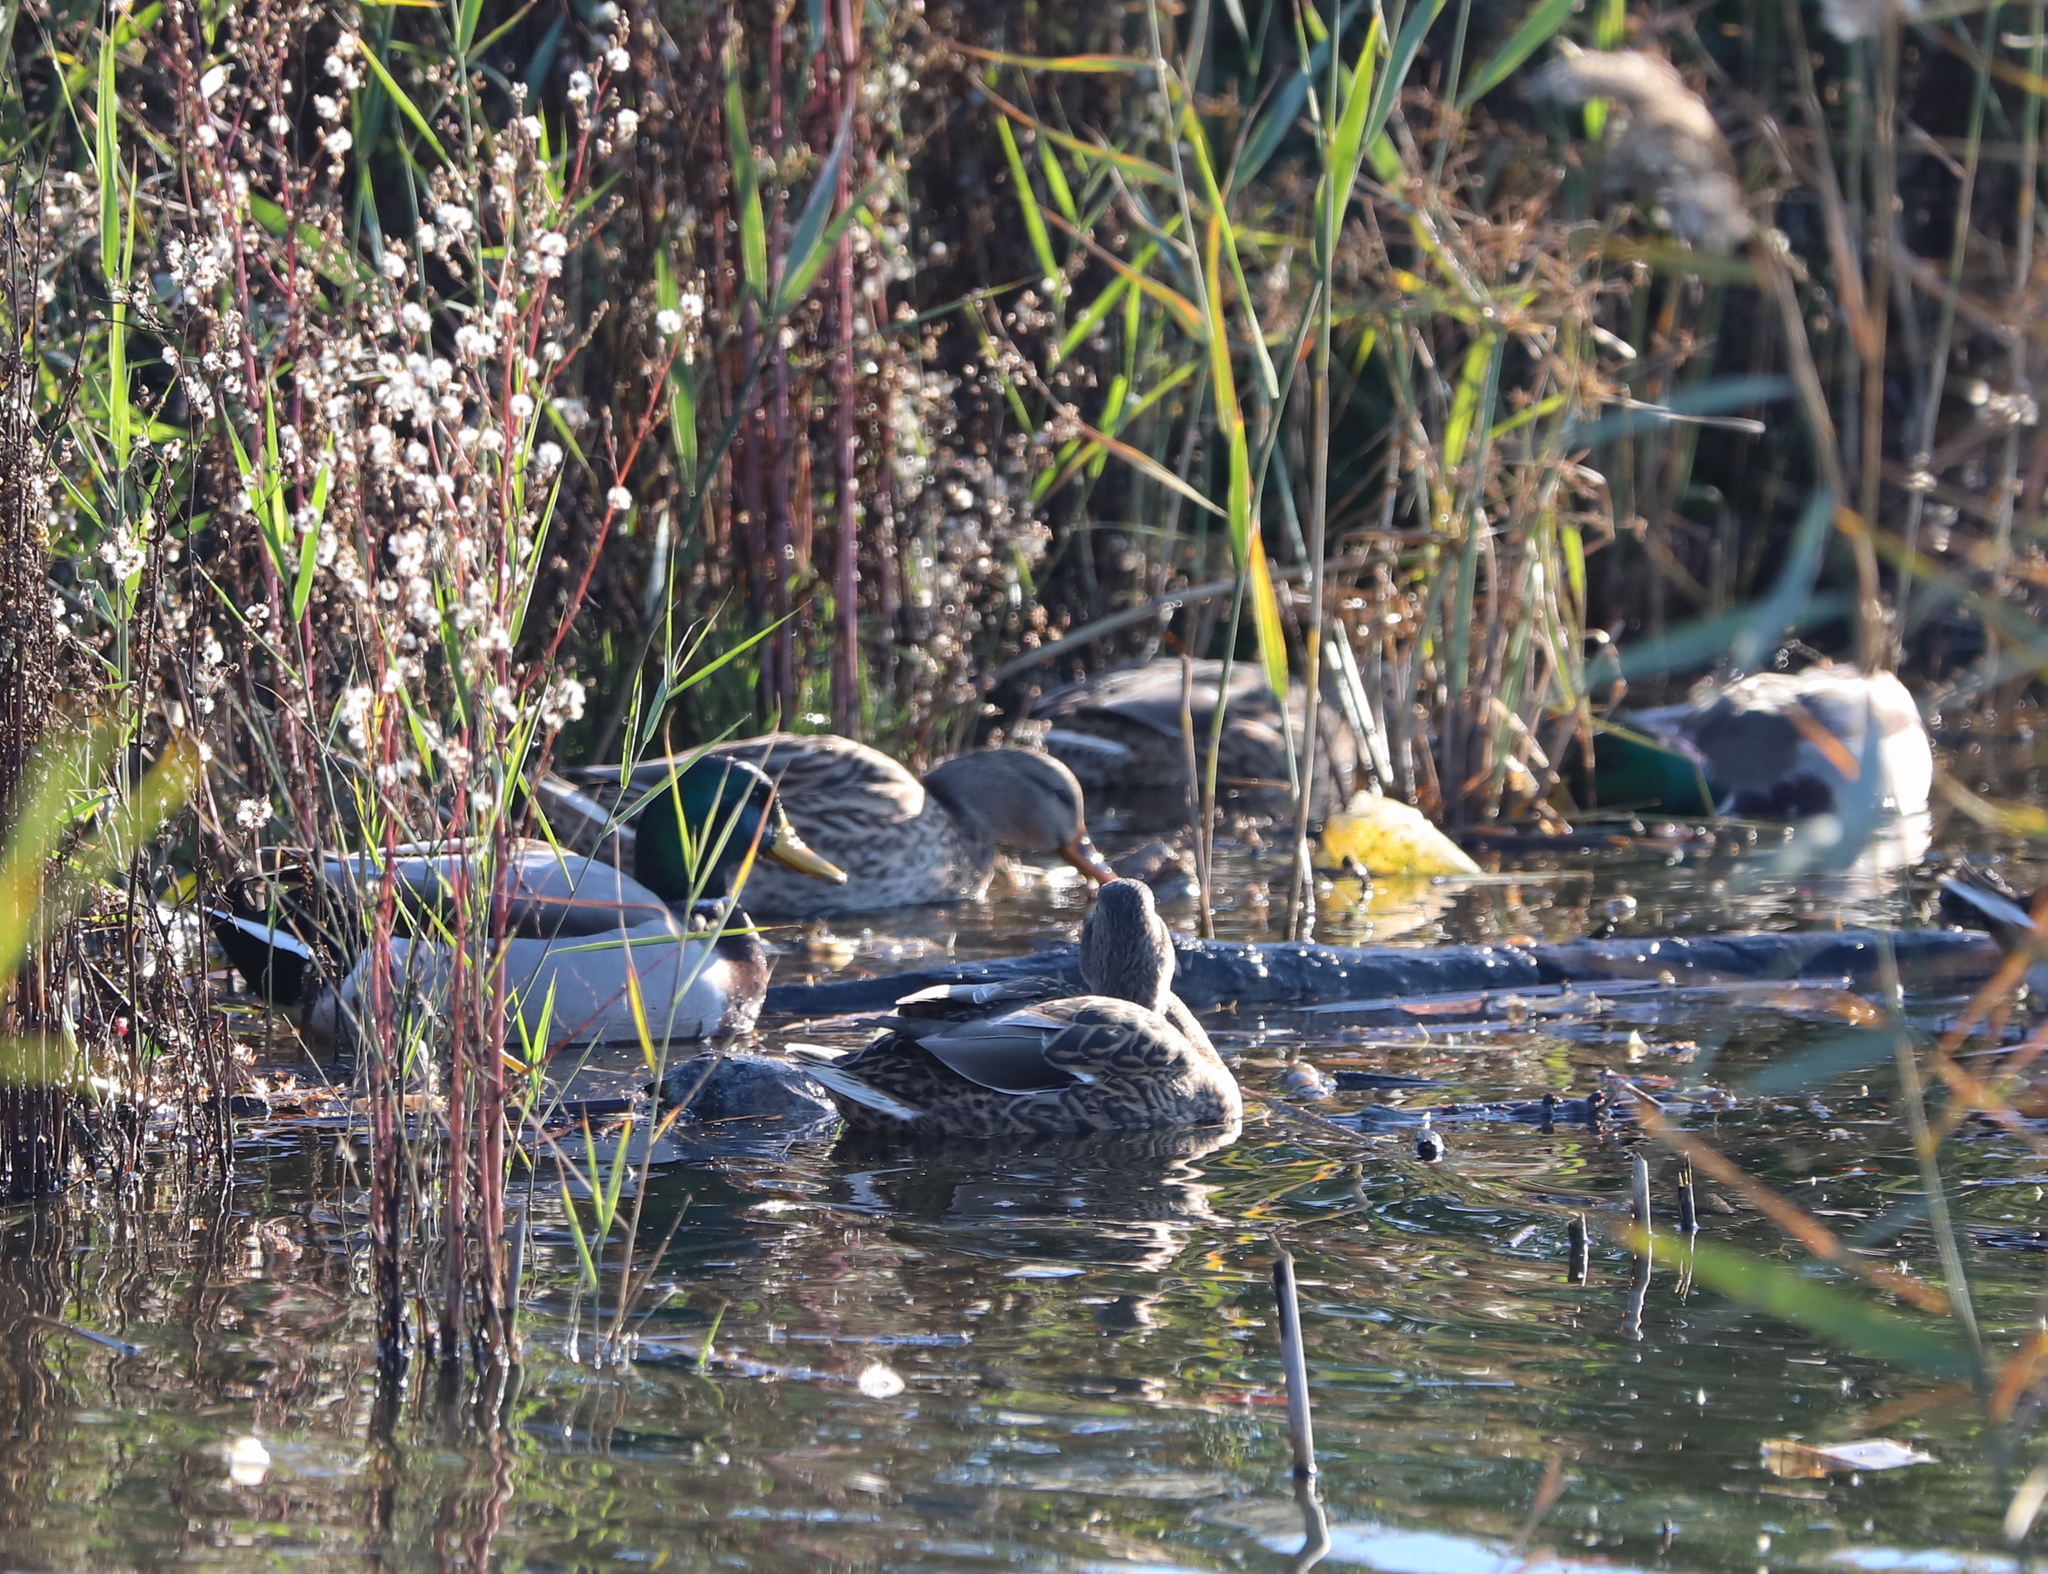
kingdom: Animalia
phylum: Chordata
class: Aves
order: Anseriformes
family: Anatidae
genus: Anas
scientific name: Anas platyrhynchos
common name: Mallard
